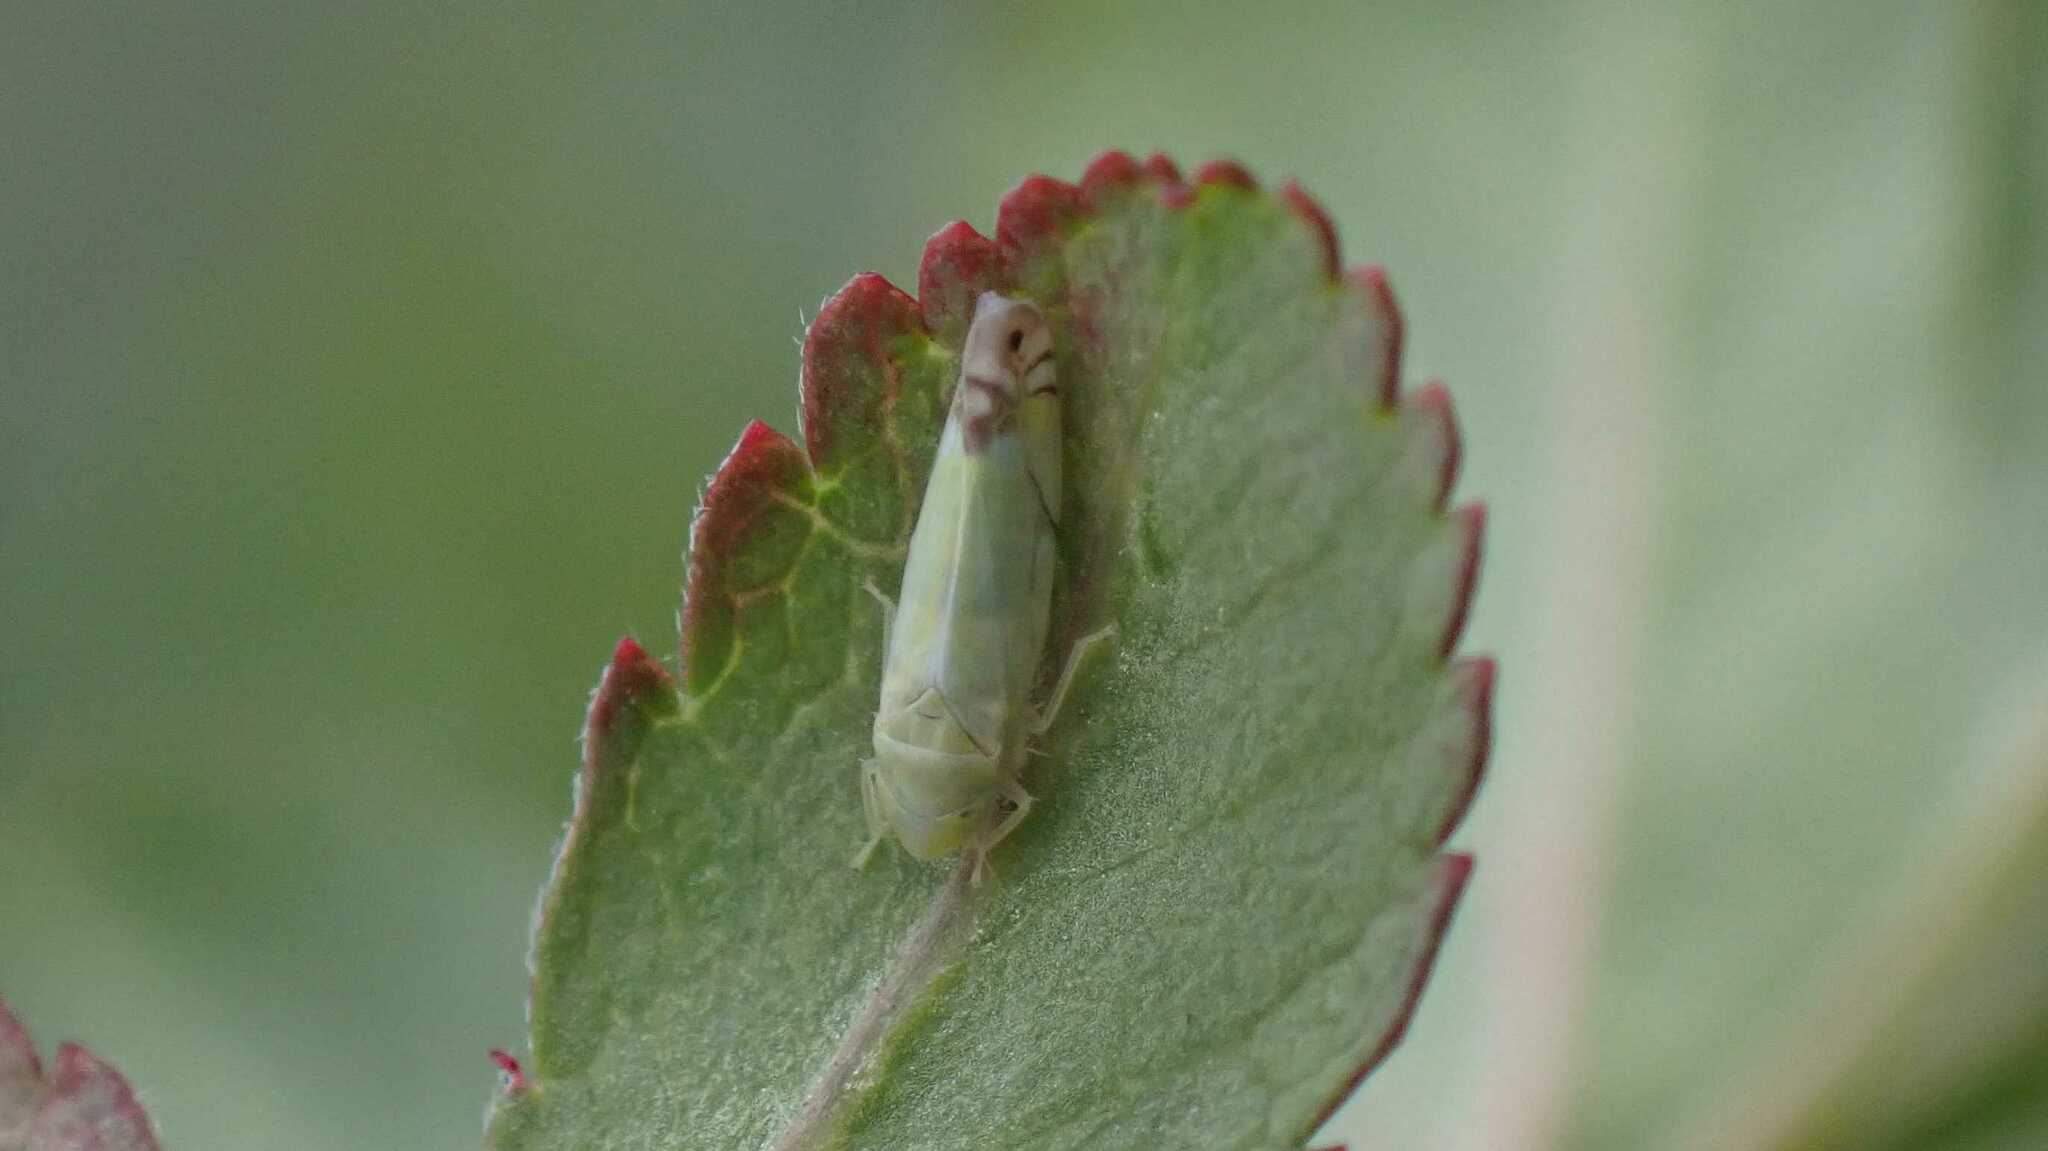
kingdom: Animalia
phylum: Arthropoda
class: Insecta
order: Hemiptera
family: Cicadellidae
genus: Zyginella
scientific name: Zyginella pulchra
